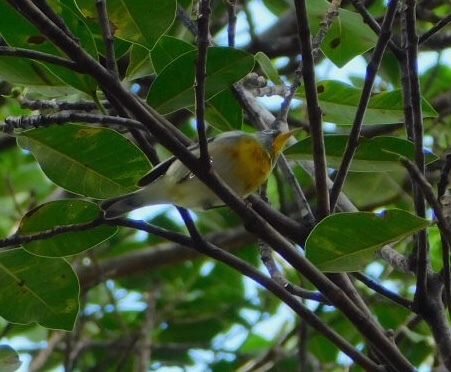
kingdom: Animalia
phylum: Chordata
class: Aves
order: Passeriformes
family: Parulidae
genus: Setophaga
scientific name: Setophaga americana
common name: Northern parula
